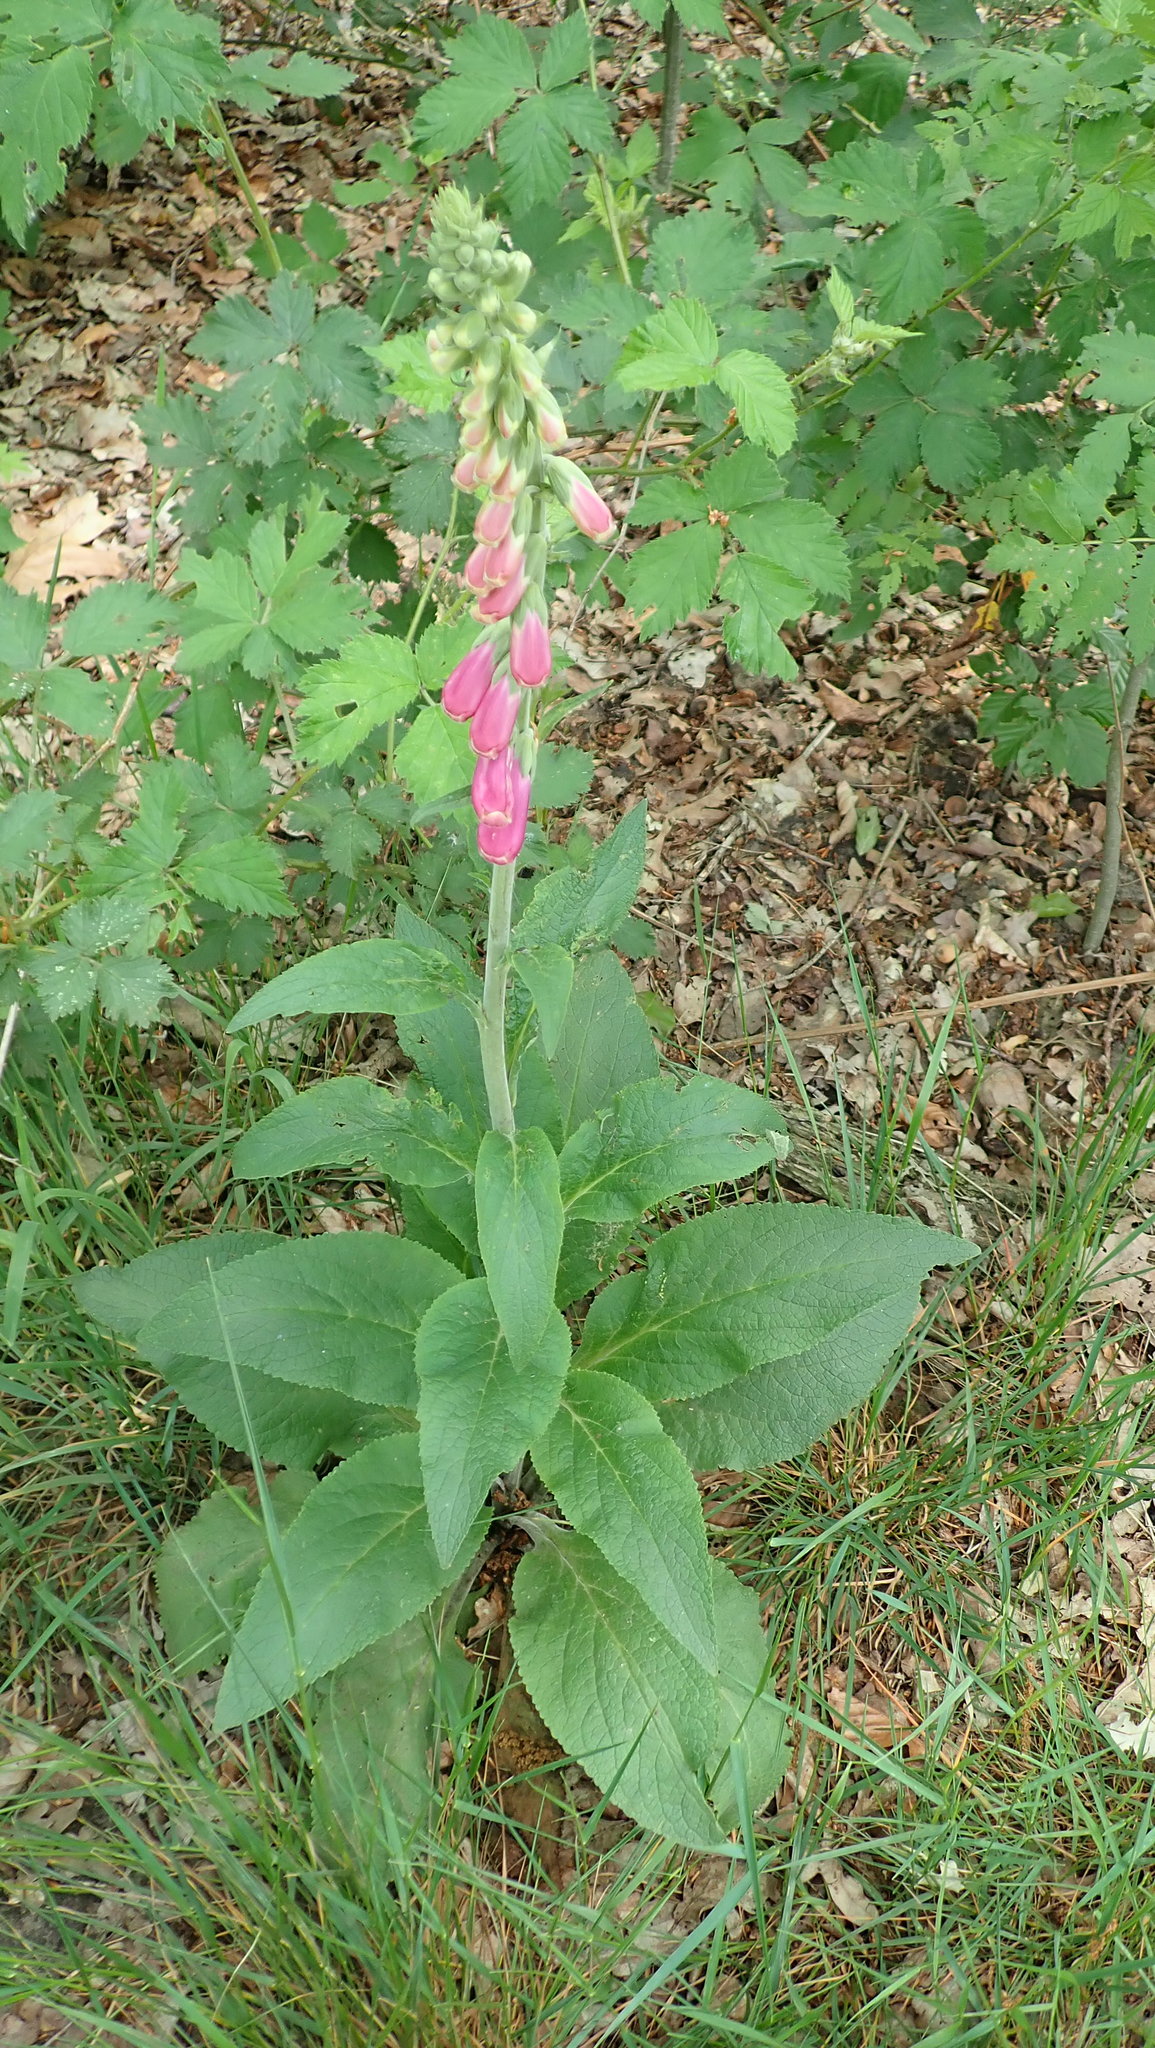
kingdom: Plantae
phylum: Tracheophyta
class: Magnoliopsida
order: Lamiales
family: Plantaginaceae
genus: Digitalis
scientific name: Digitalis purpurea
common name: Foxglove
